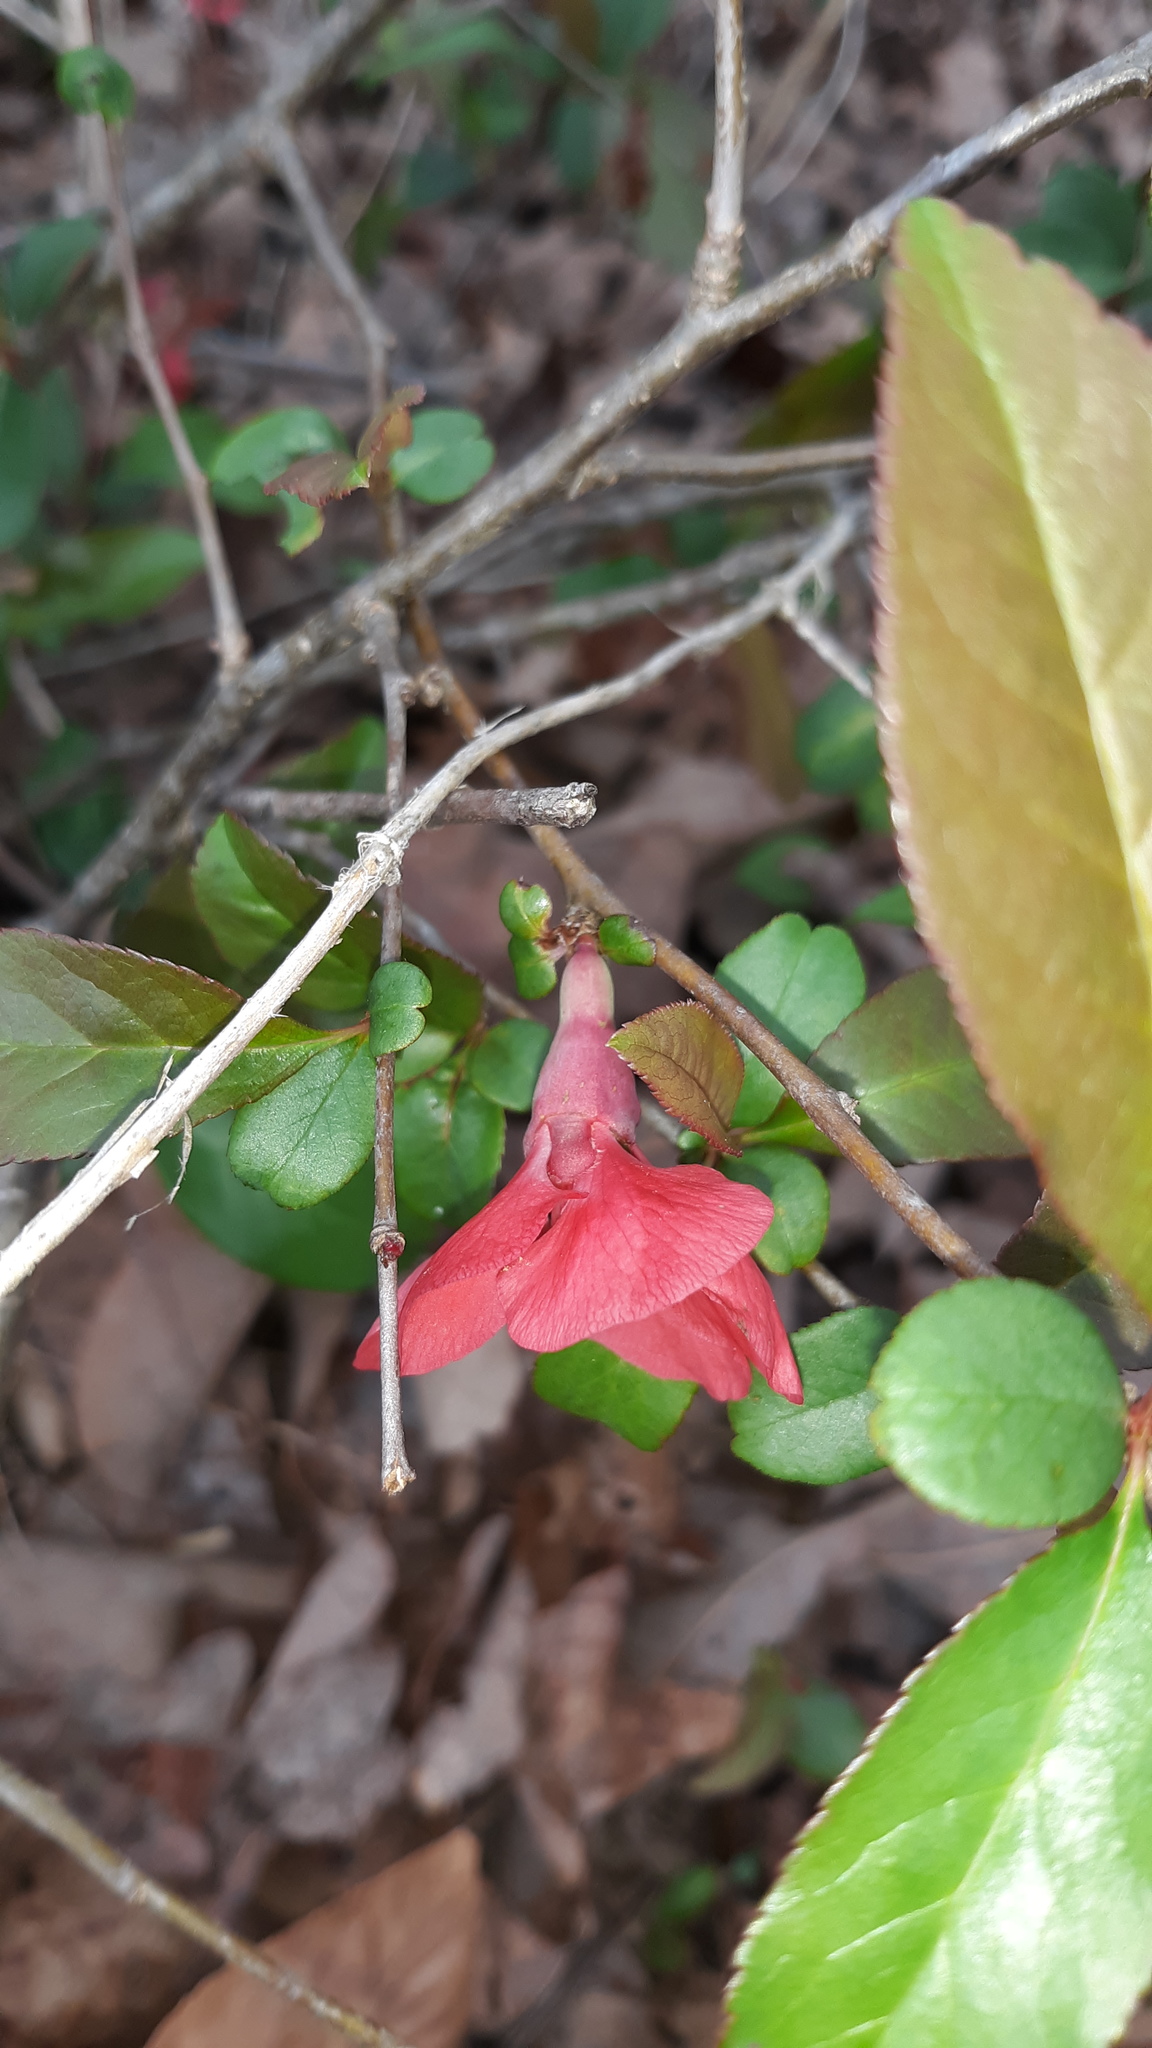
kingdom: Plantae
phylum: Tracheophyta
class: Magnoliopsida
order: Rosales
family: Rosaceae
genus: Chaenomeles
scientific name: Chaenomeles speciosa
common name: Japanese quince
